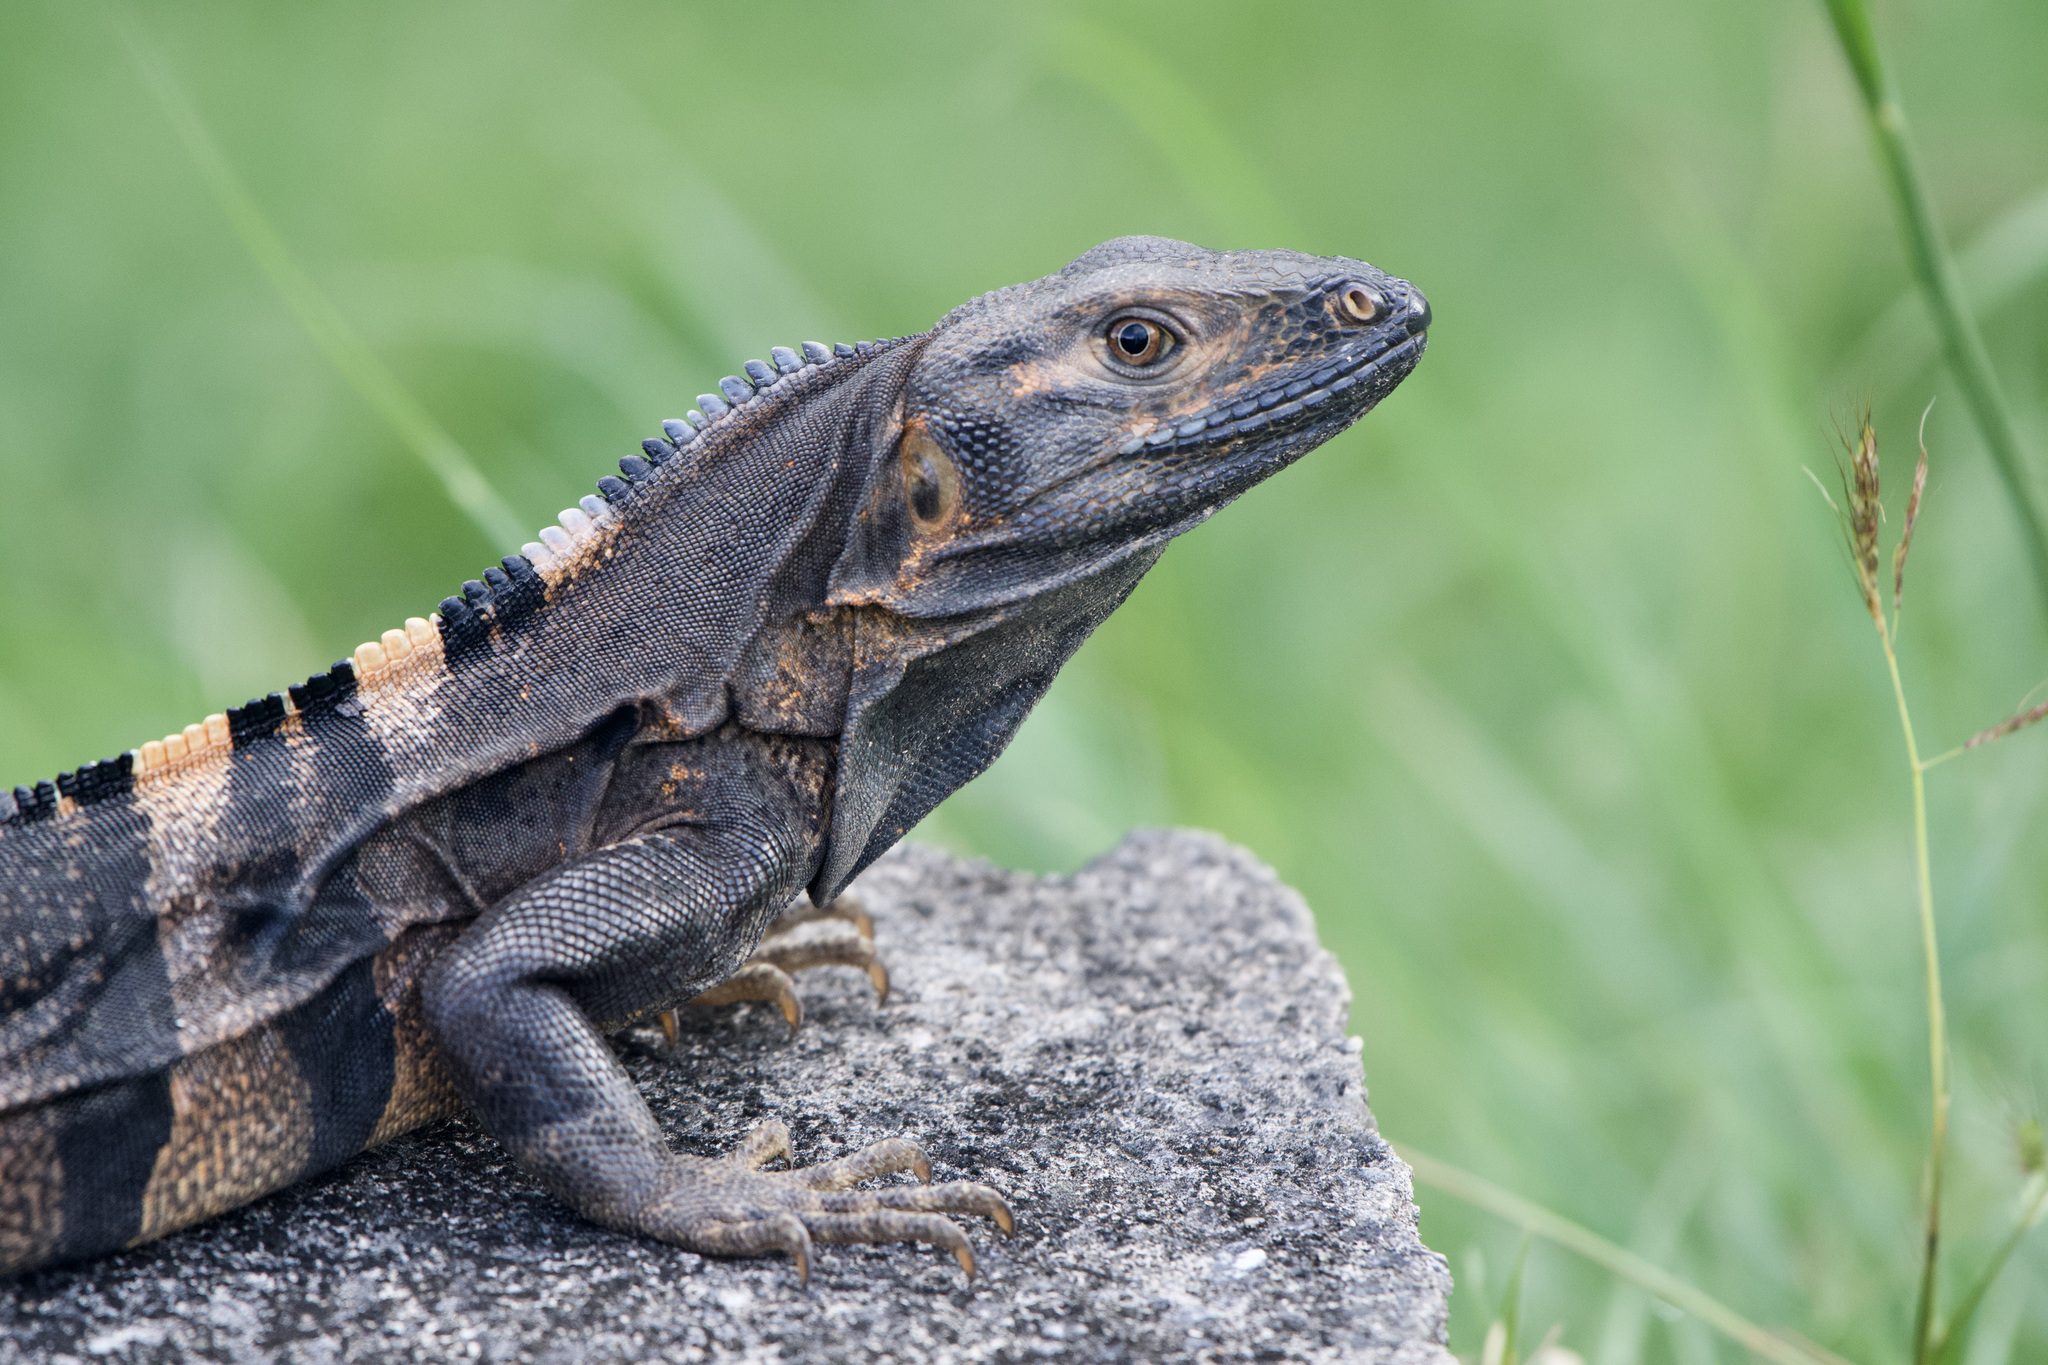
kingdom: Animalia
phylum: Chordata
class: Squamata
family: Iguanidae
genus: Ctenosaura
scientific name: Ctenosaura similis
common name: Black spiny-tailed iguana
